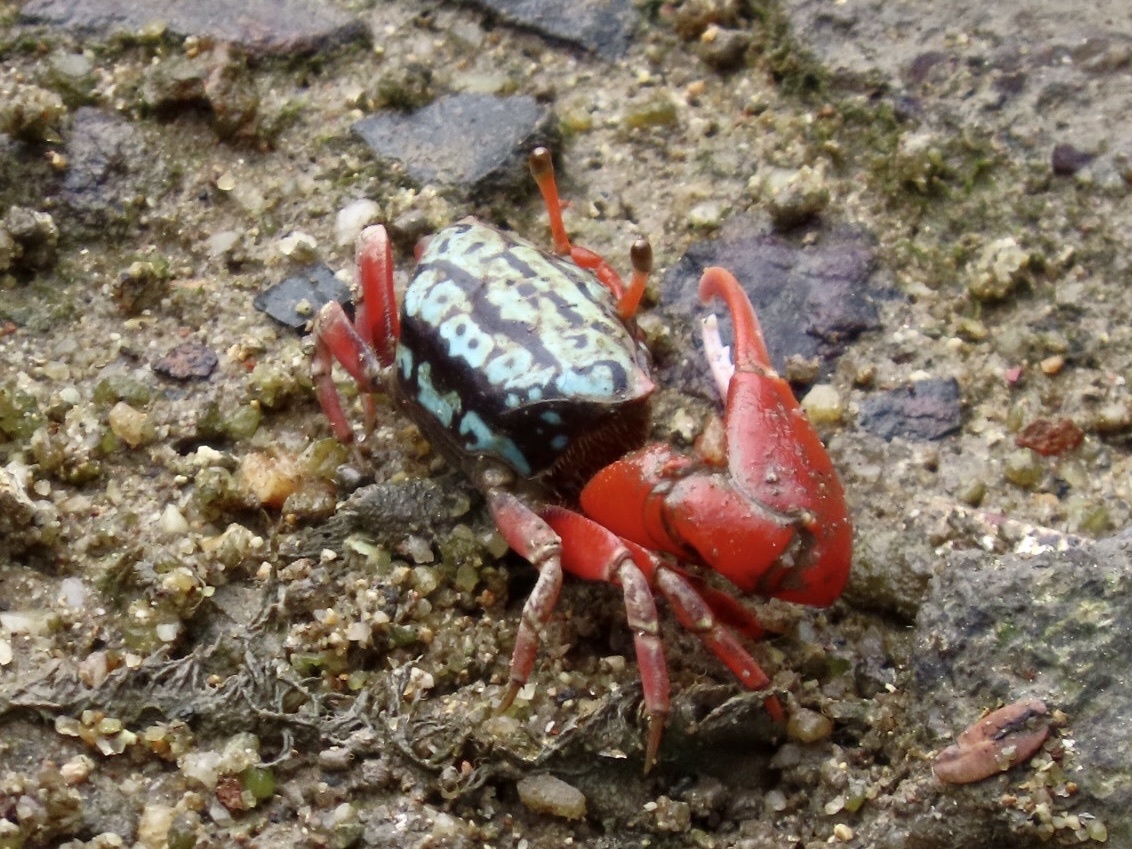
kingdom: Animalia
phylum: Arthropoda
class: Malacostraca
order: Decapoda
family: Ocypodidae
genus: Paraleptuca
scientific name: Paraleptuca splendida
